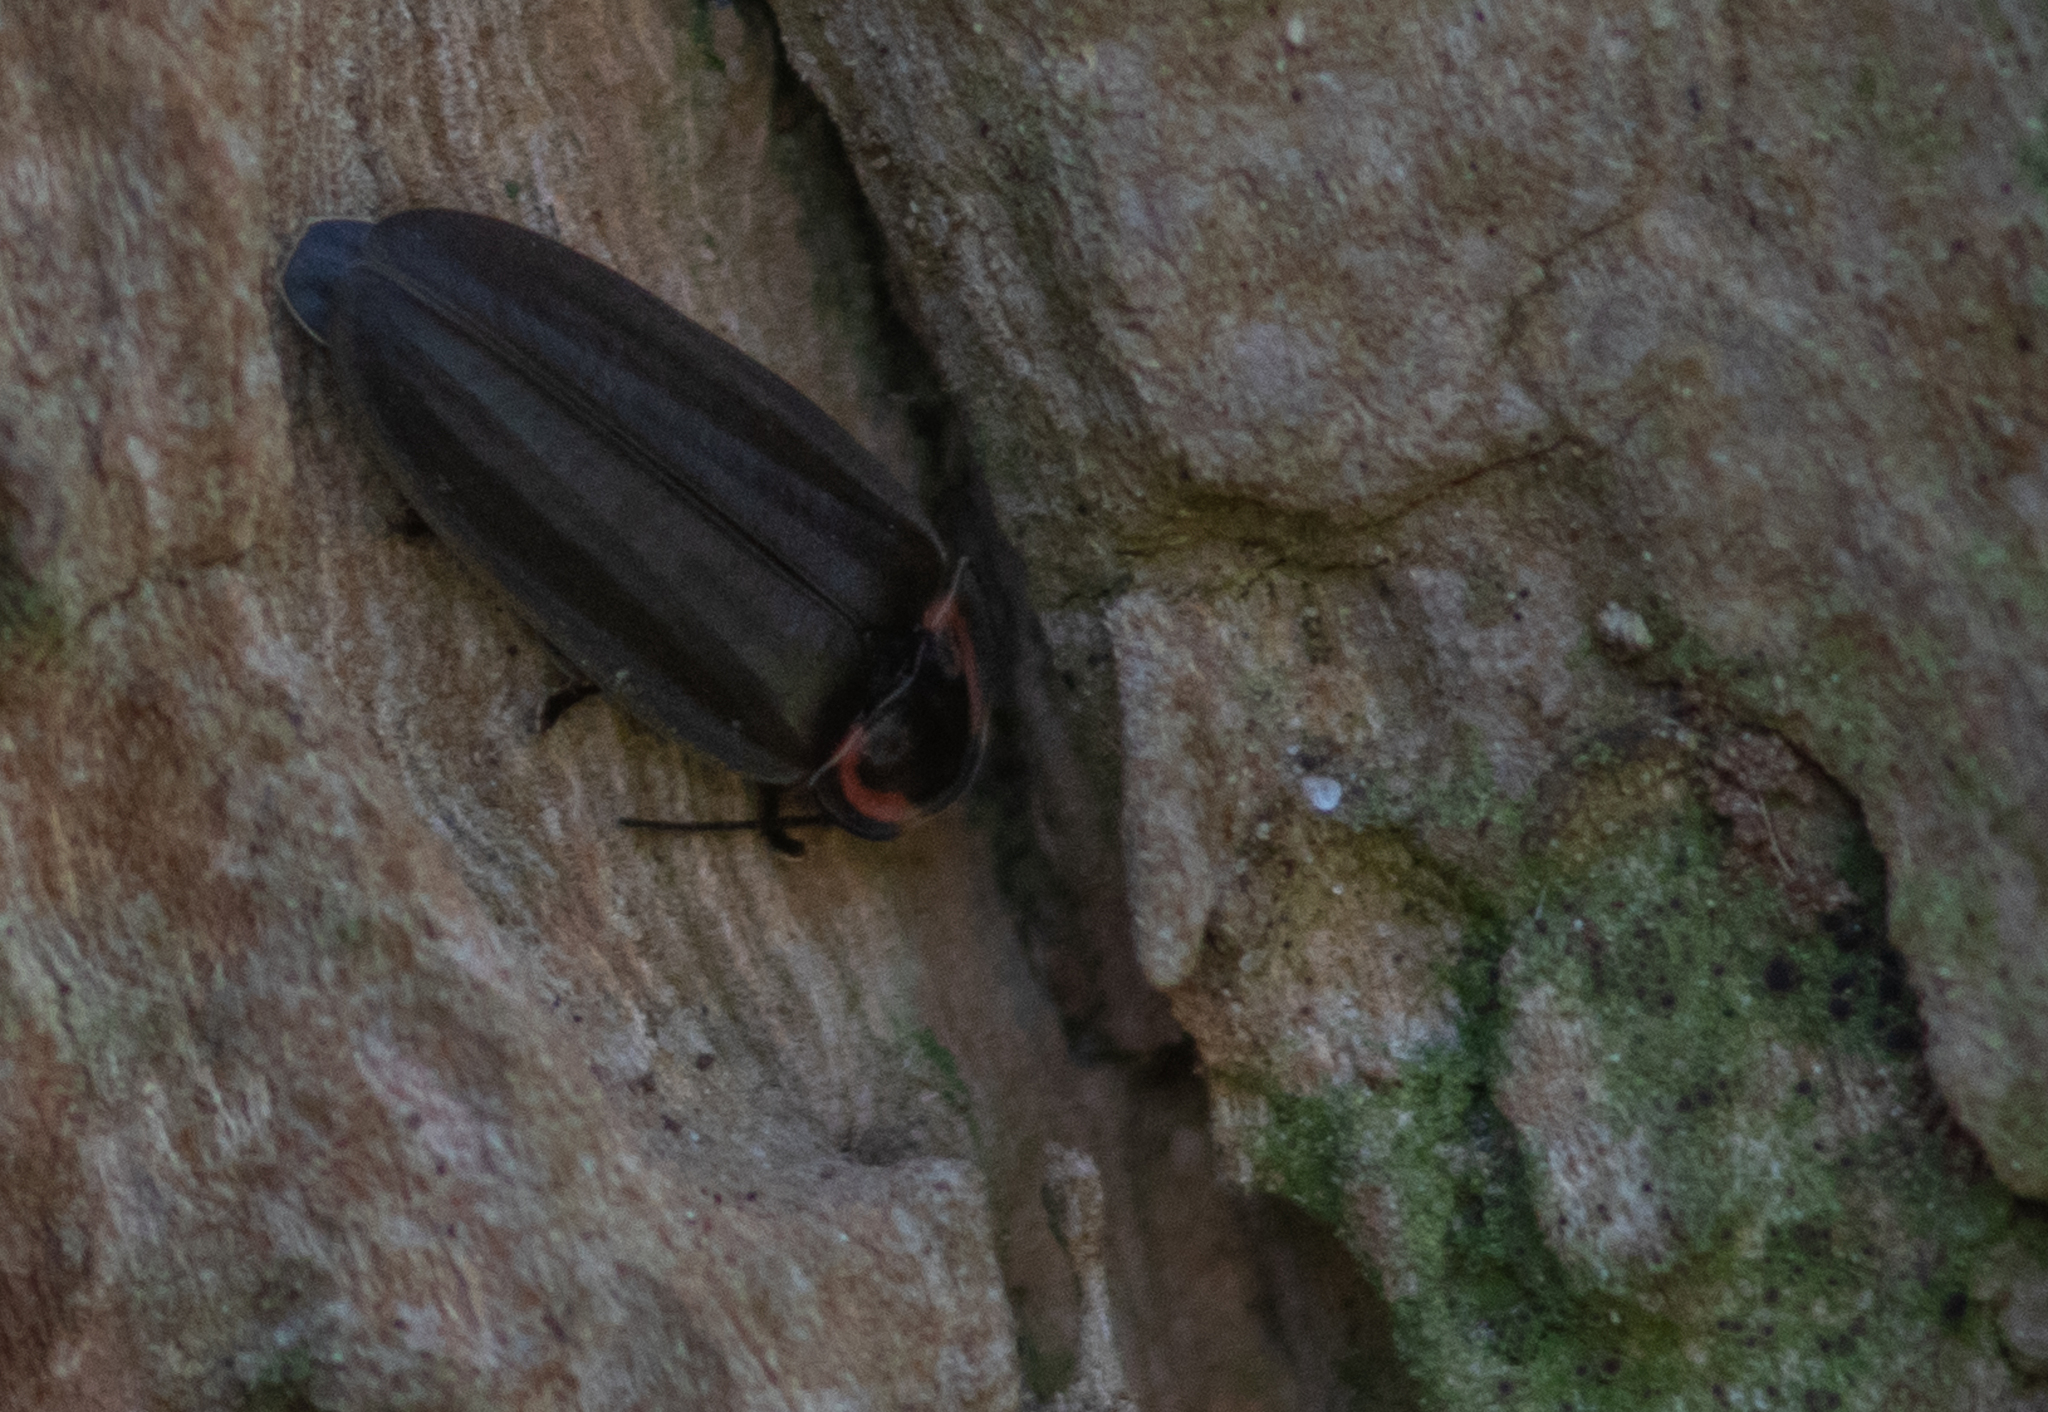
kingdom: Animalia
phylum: Arthropoda
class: Insecta
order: Coleoptera
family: Lampyridae
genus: Photinus
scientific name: Photinus corrusca
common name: Winter firefly
